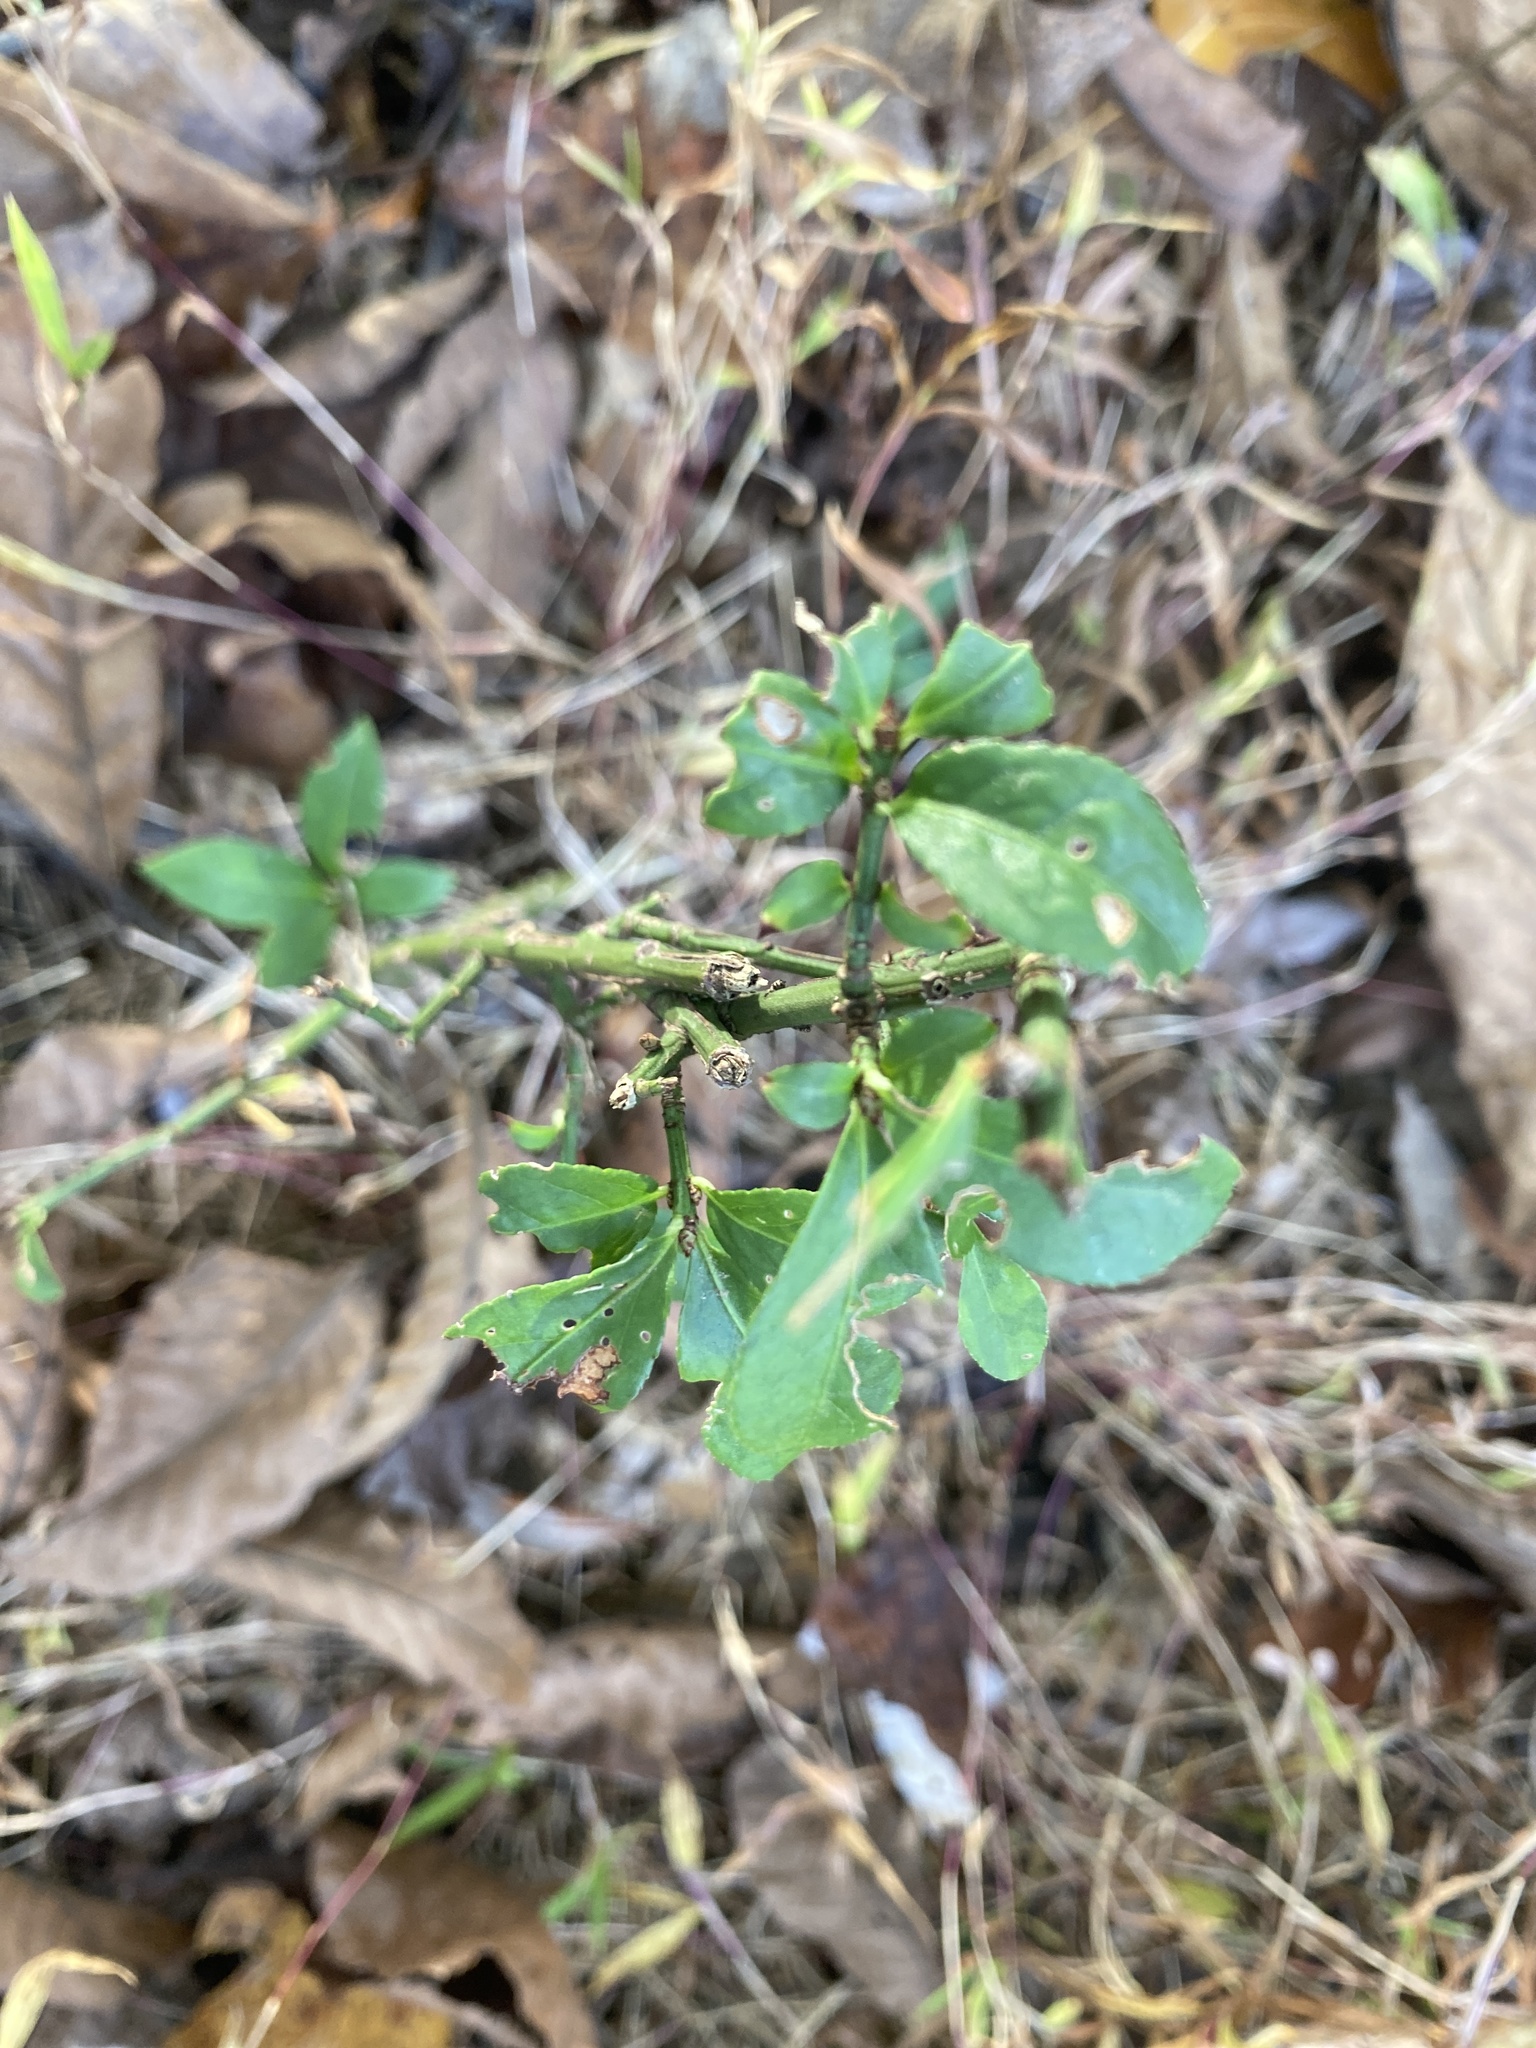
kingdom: Plantae
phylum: Tracheophyta
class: Magnoliopsida
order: Celastrales
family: Celastraceae
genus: Euonymus
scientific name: Euonymus alatus
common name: Winged euonymus
